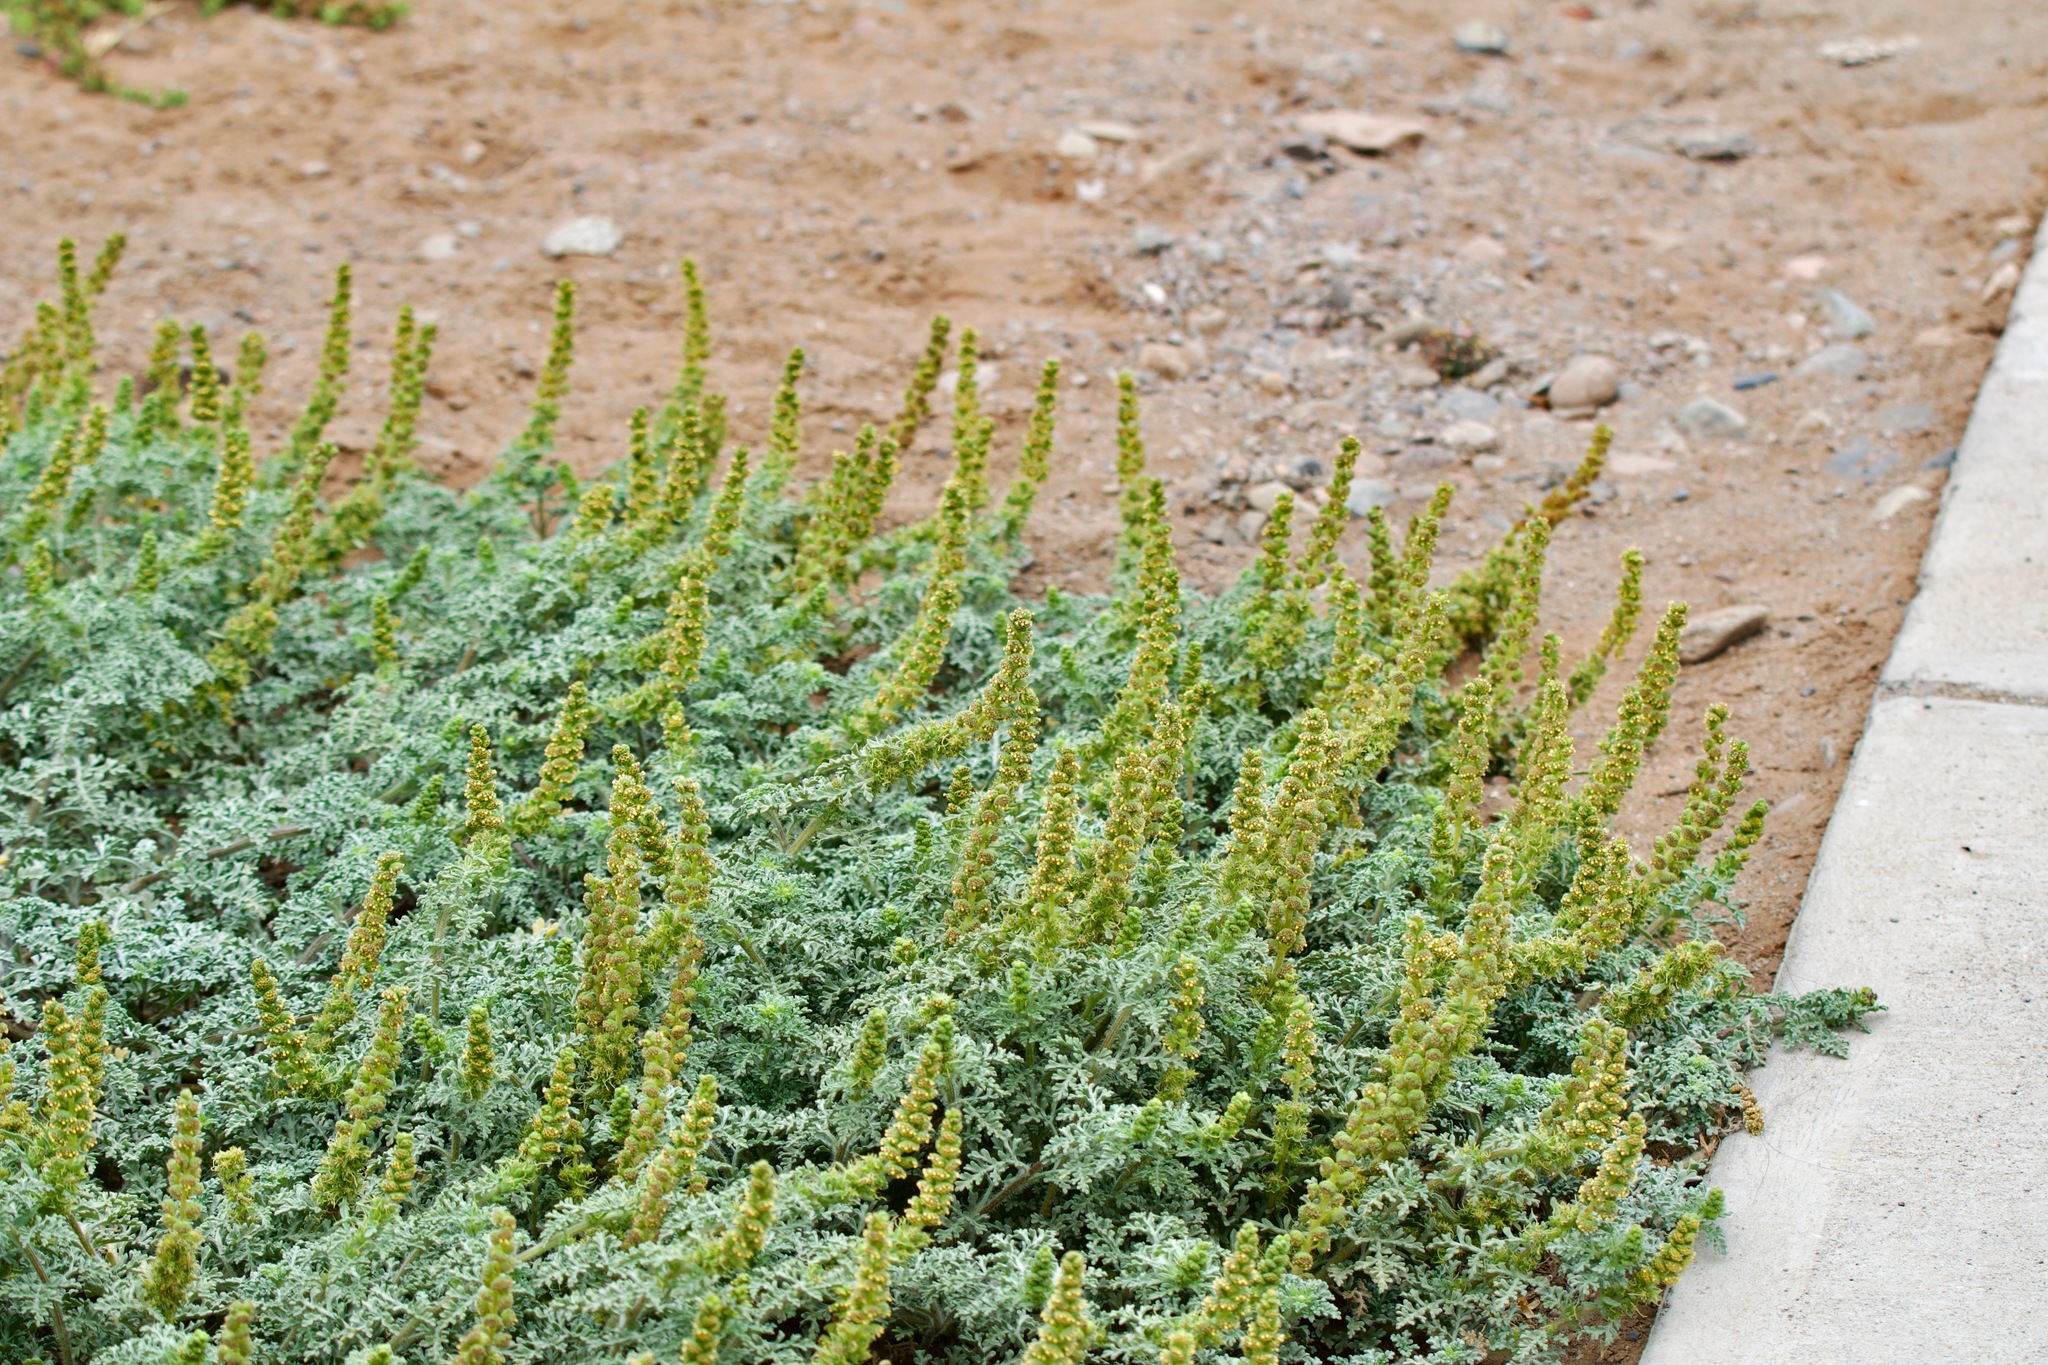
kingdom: Plantae
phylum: Tracheophyta
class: Magnoliopsida
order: Asterales
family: Asteraceae
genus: Ambrosia
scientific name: Ambrosia chamissonis
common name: Beachbur
